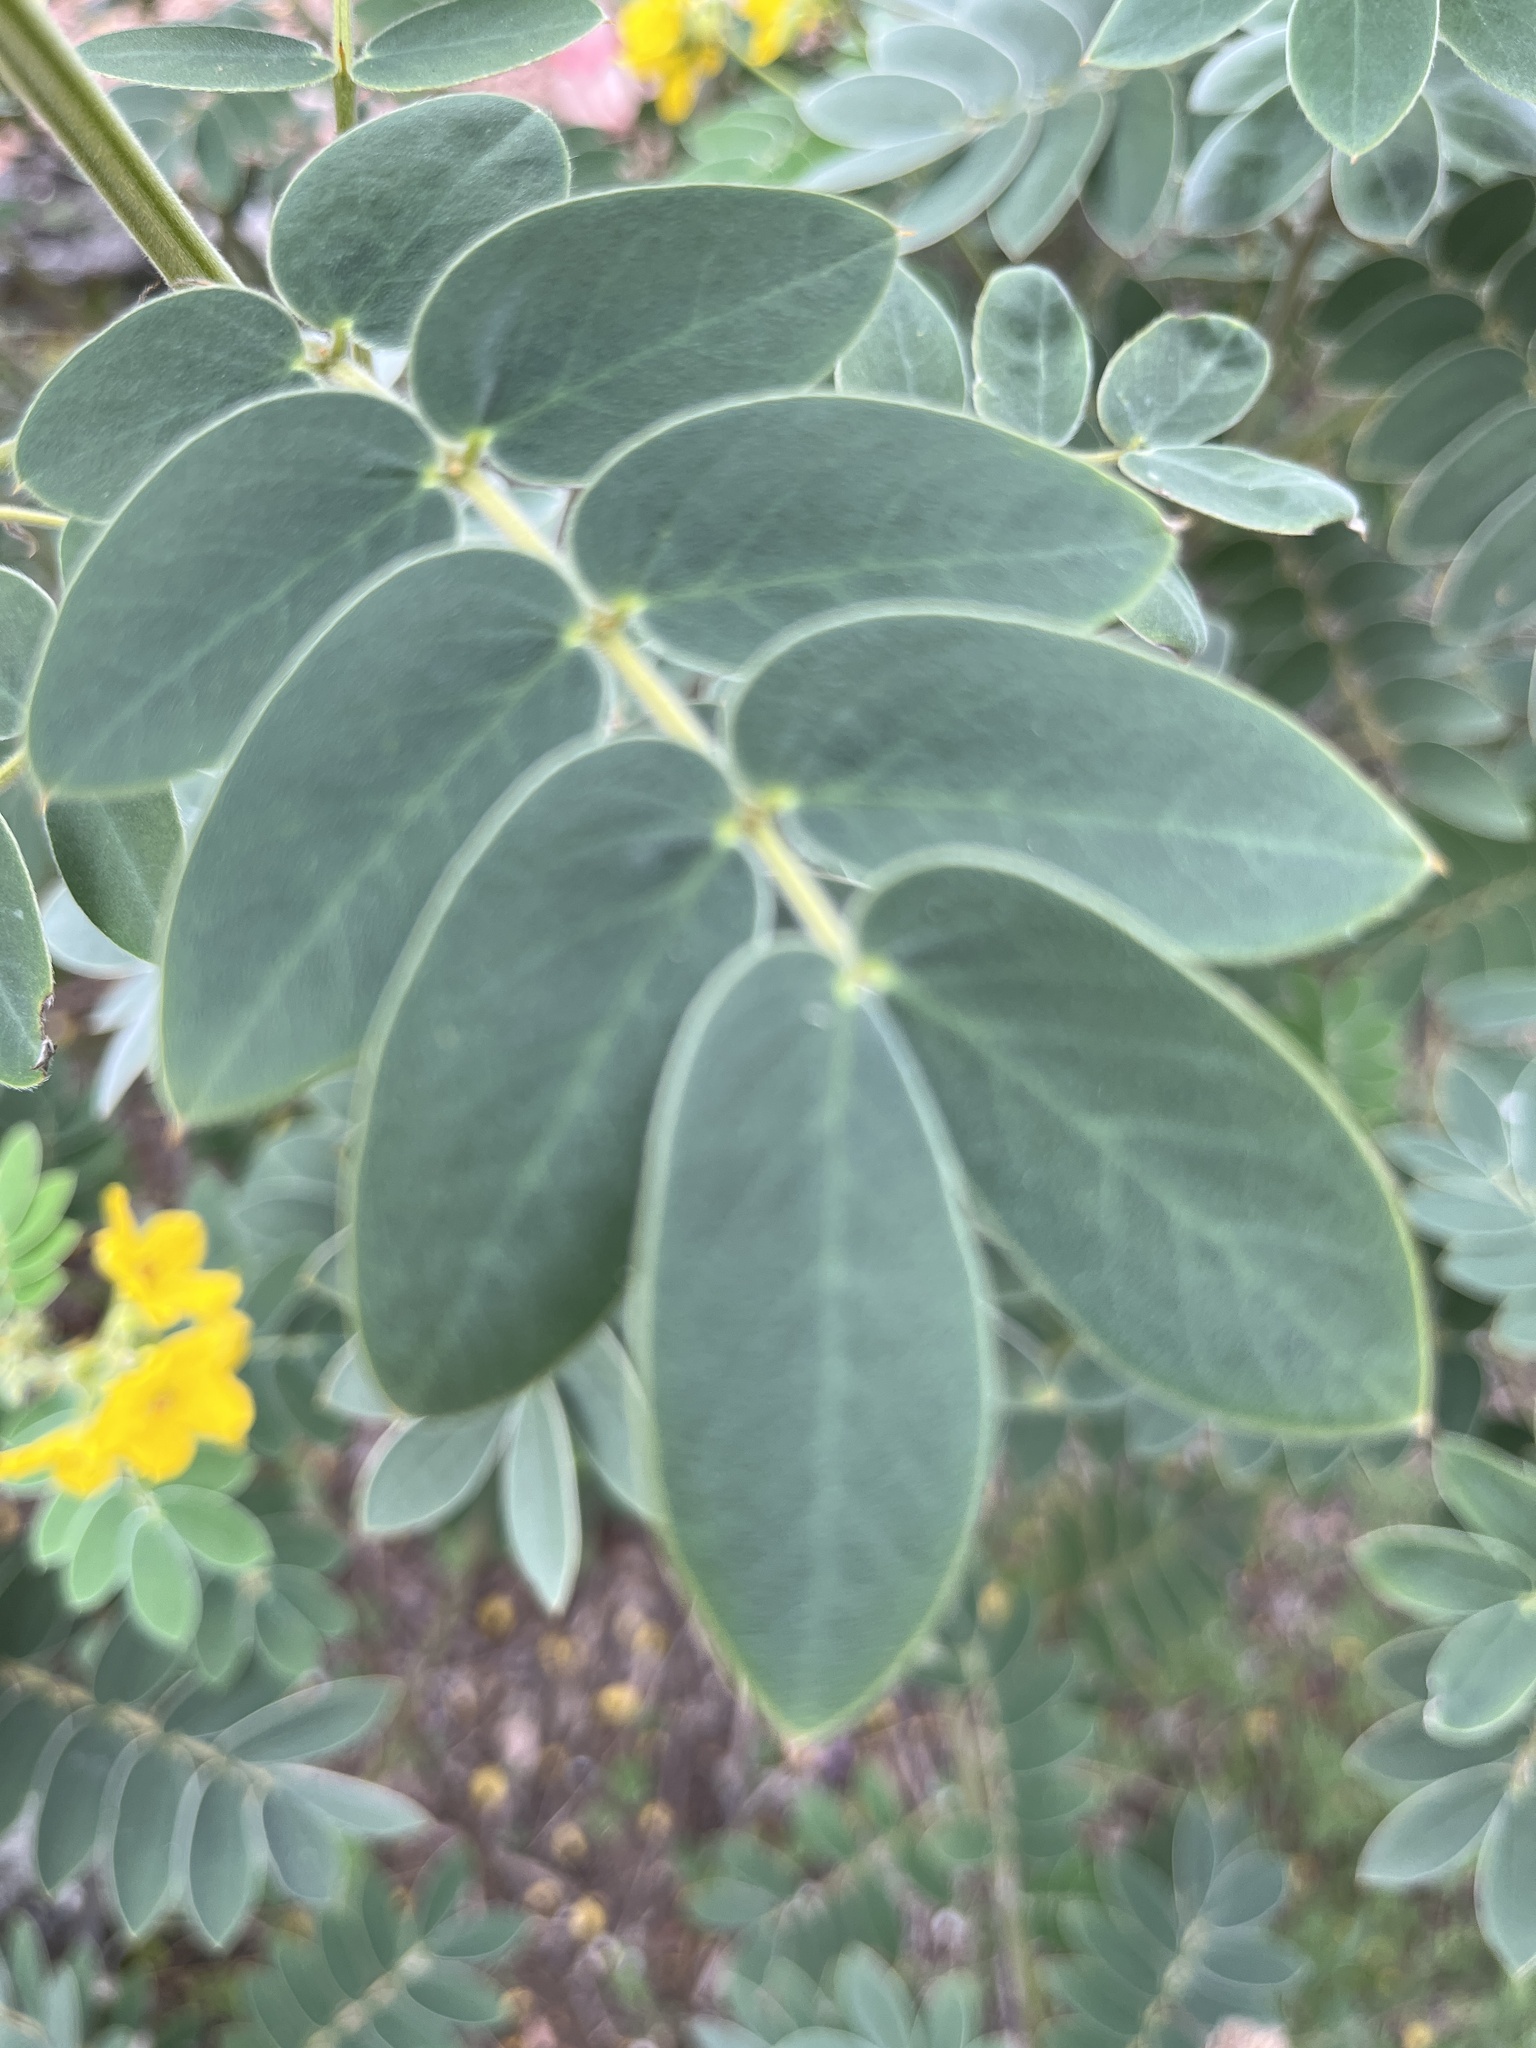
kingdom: Plantae
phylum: Tracheophyta
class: Magnoliopsida
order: Fabales
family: Fabaceae
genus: Senna
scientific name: Senna lindheimeriana
